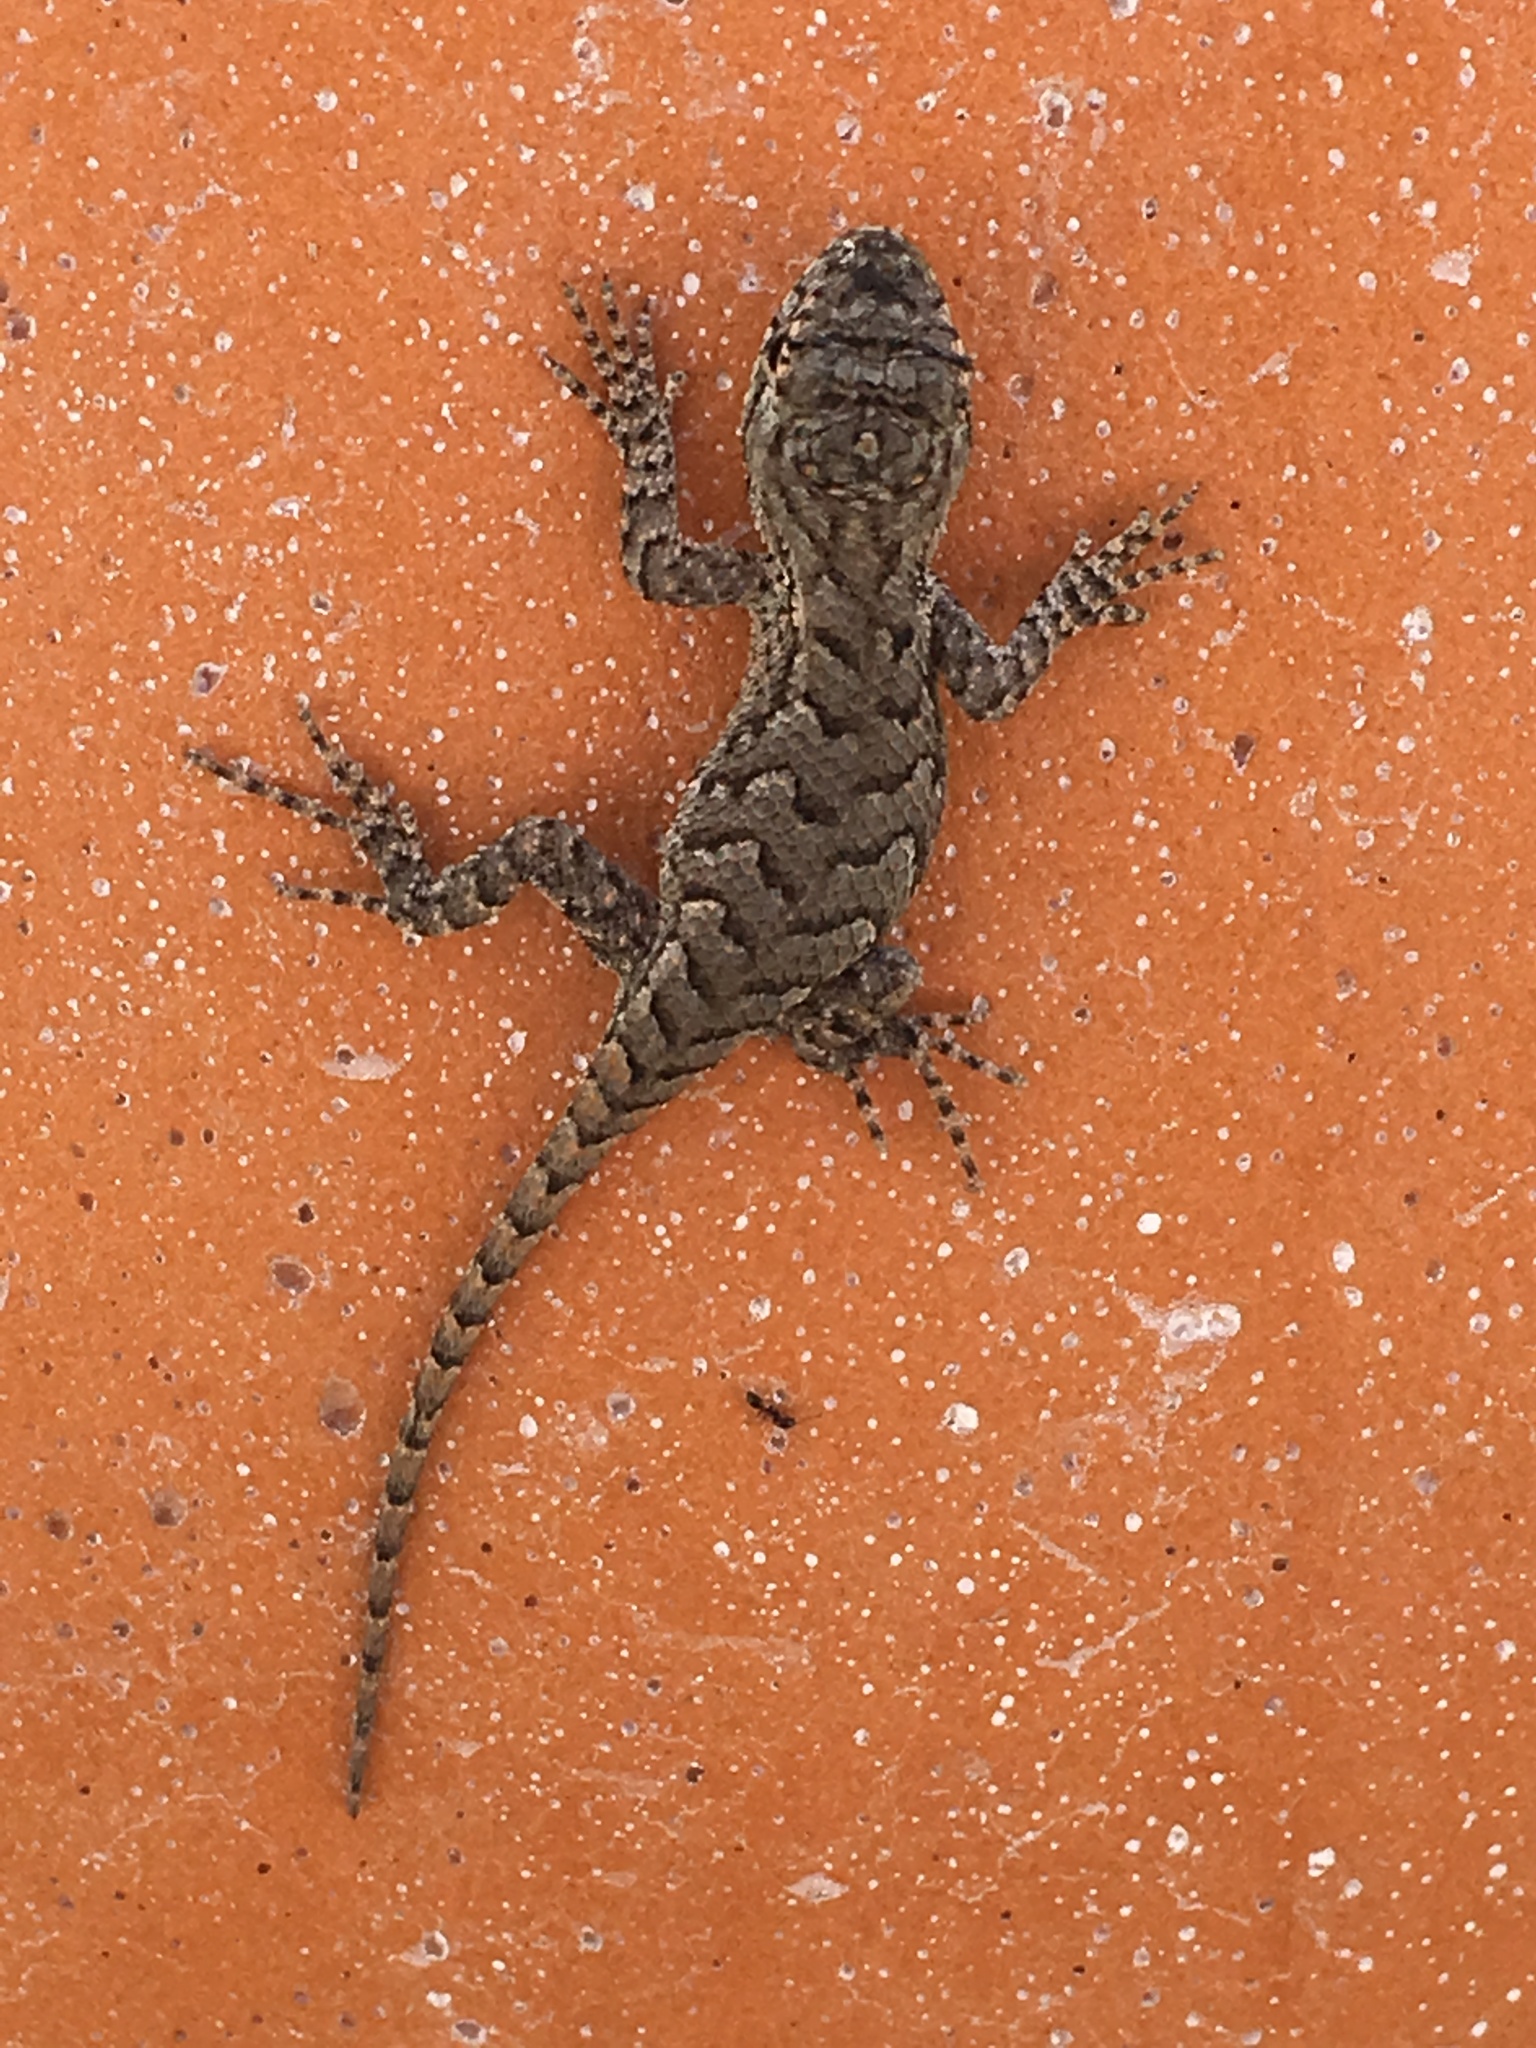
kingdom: Animalia
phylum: Chordata
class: Squamata
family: Phrynosomatidae
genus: Sceloporus
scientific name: Sceloporus undulatus
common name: Eastern fence lizard
